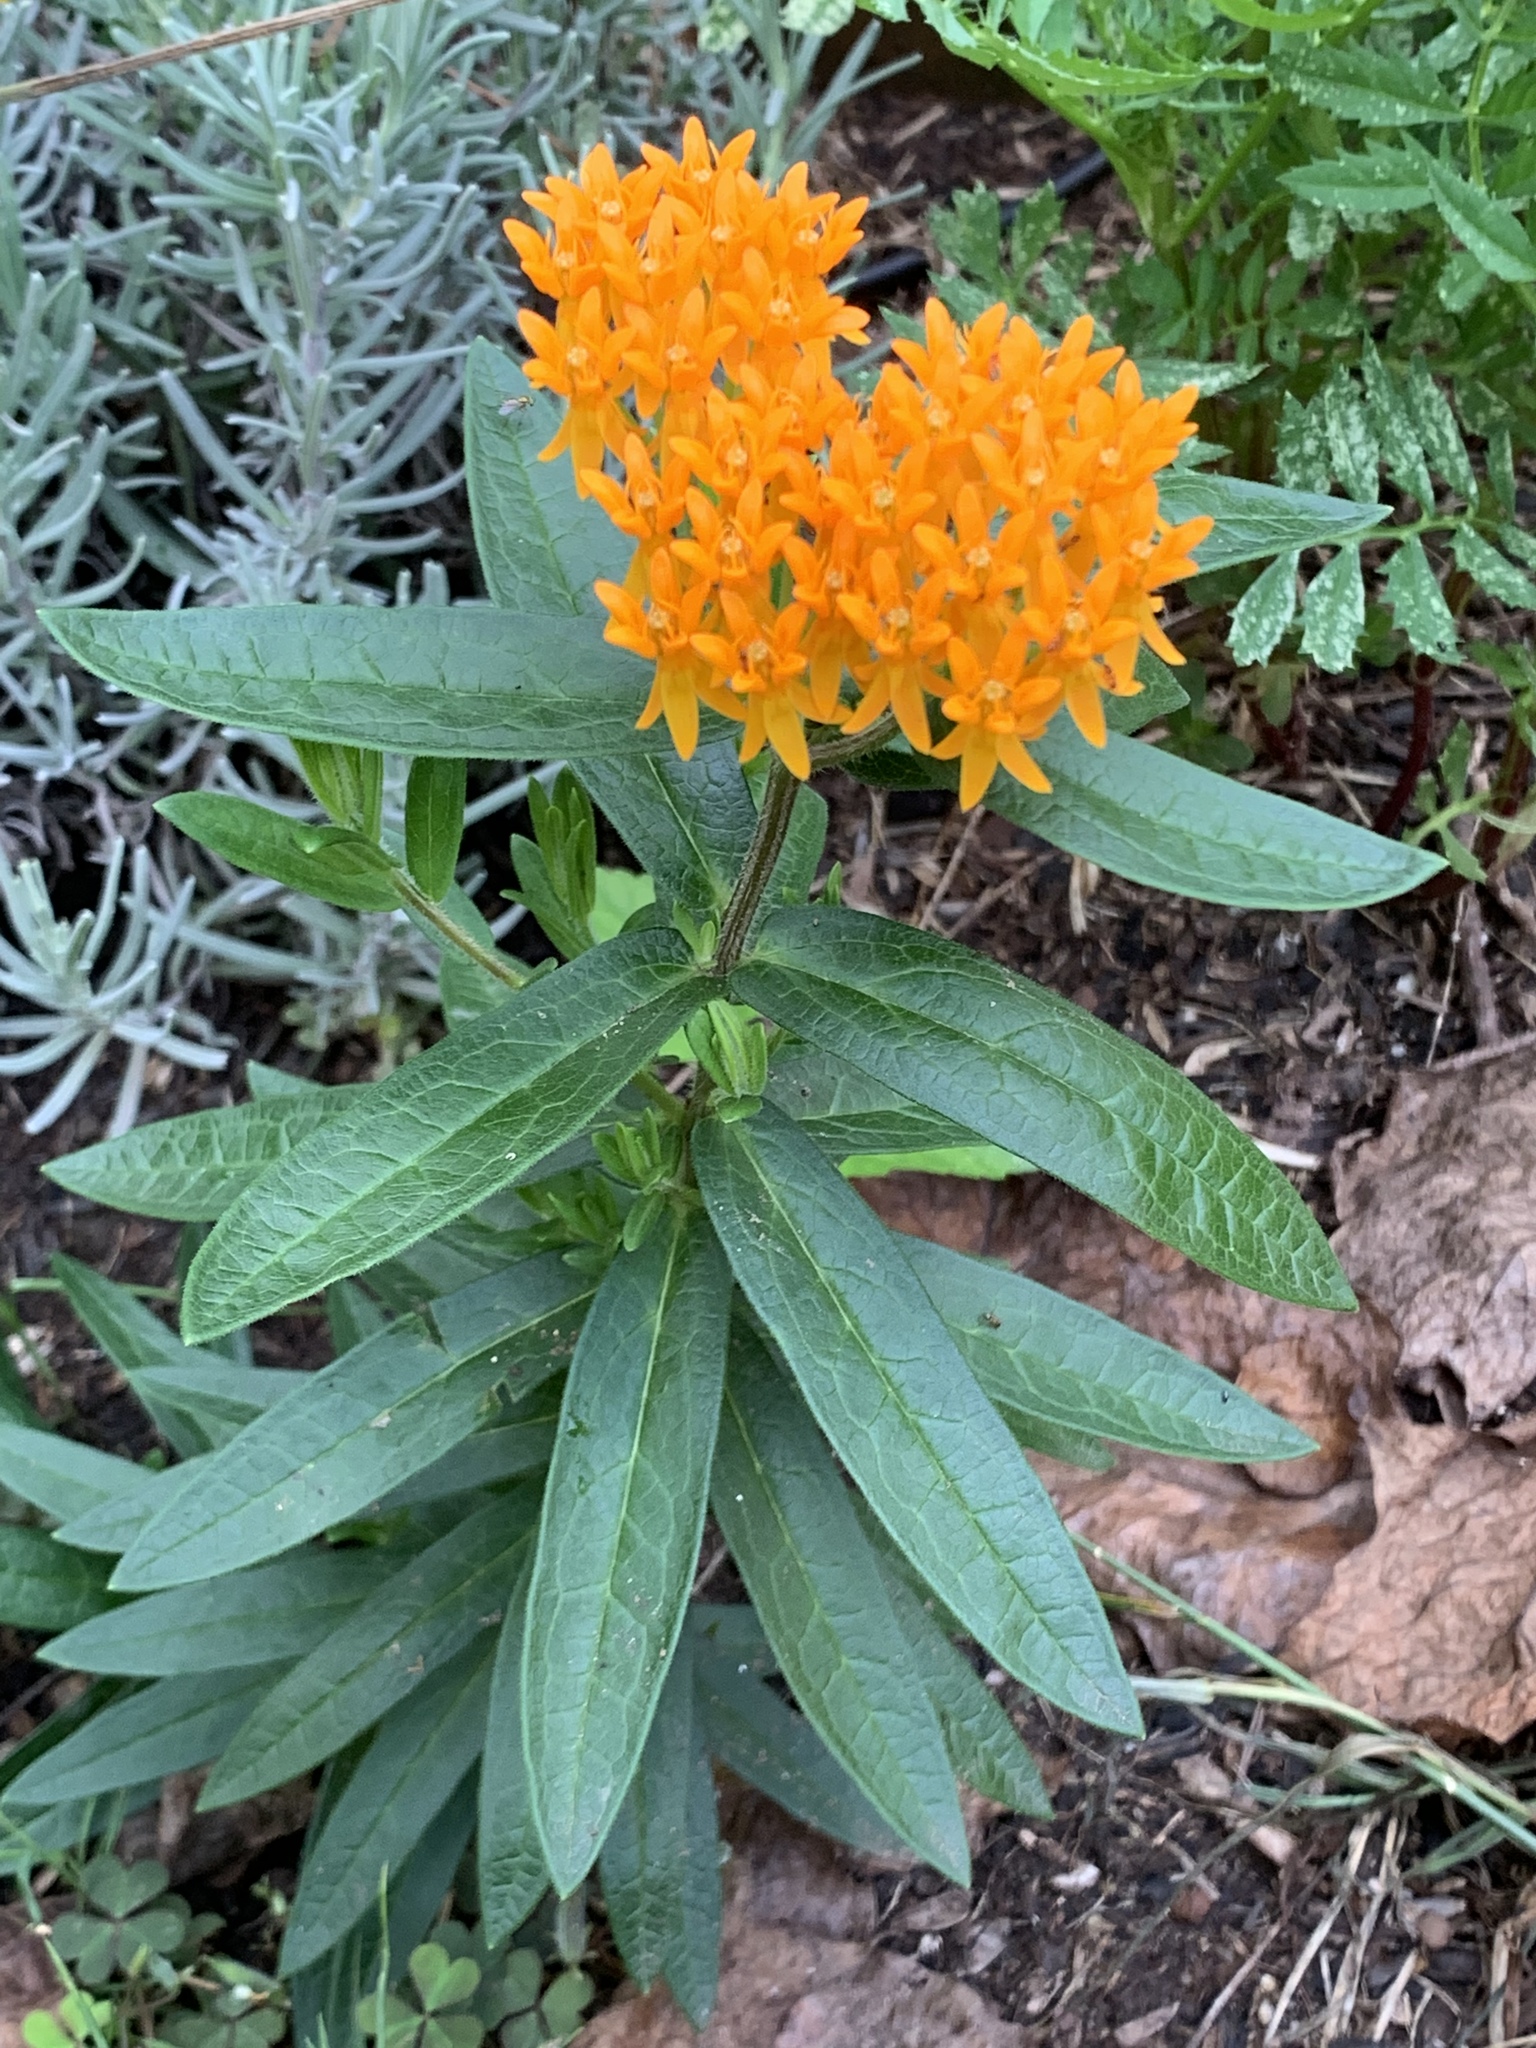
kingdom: Plantae
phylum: Tracheophyta
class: Magnoliopsida
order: Gentianales
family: Apocynaceae
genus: Asclepias
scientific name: Asclepias tuberosa
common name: Butterfly milkweed
